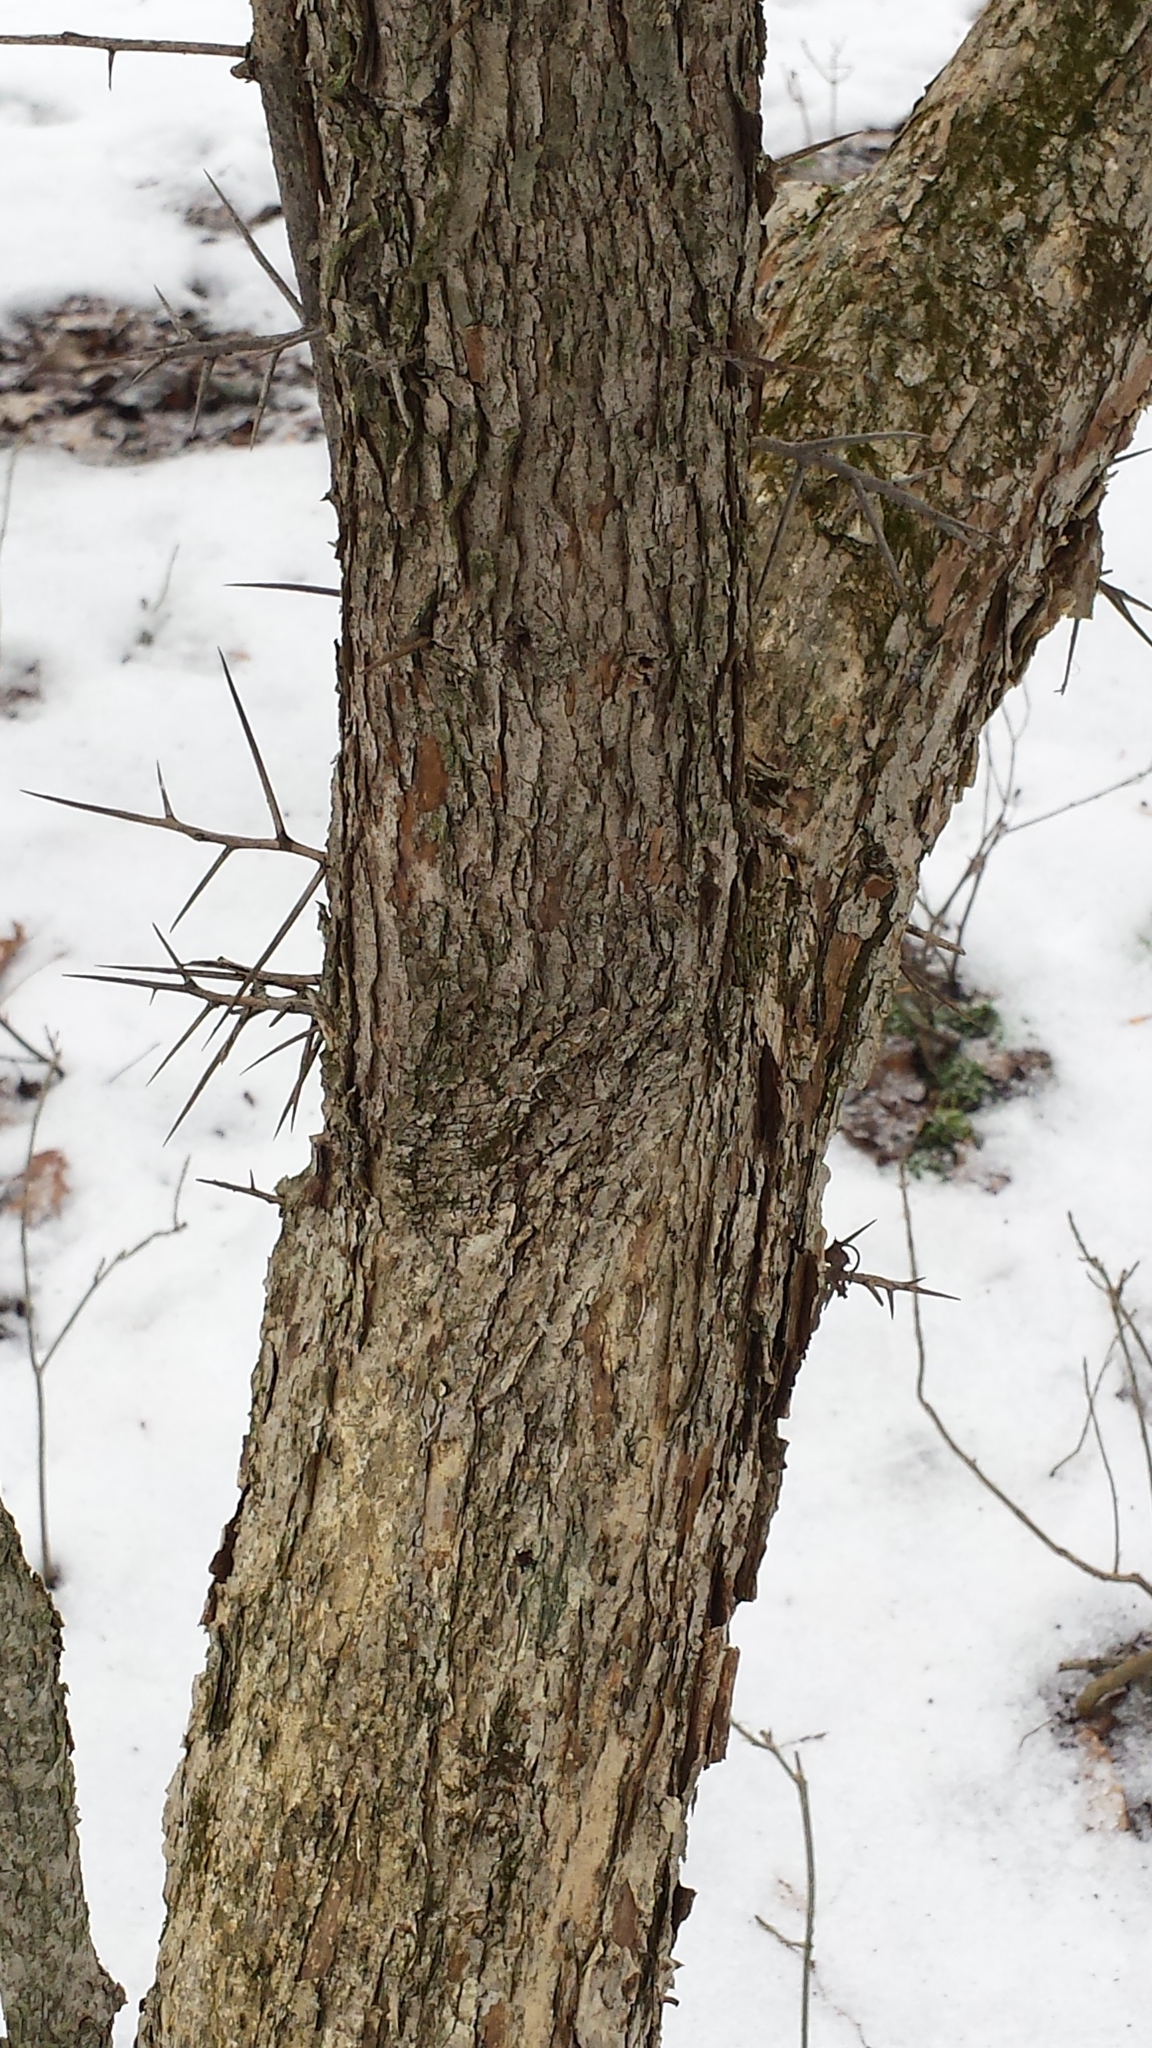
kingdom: Plantae
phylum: Tracheophyta
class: Magnoliopsida
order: Rosales
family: Rosaceae
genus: Crataegus
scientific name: Crataegus
